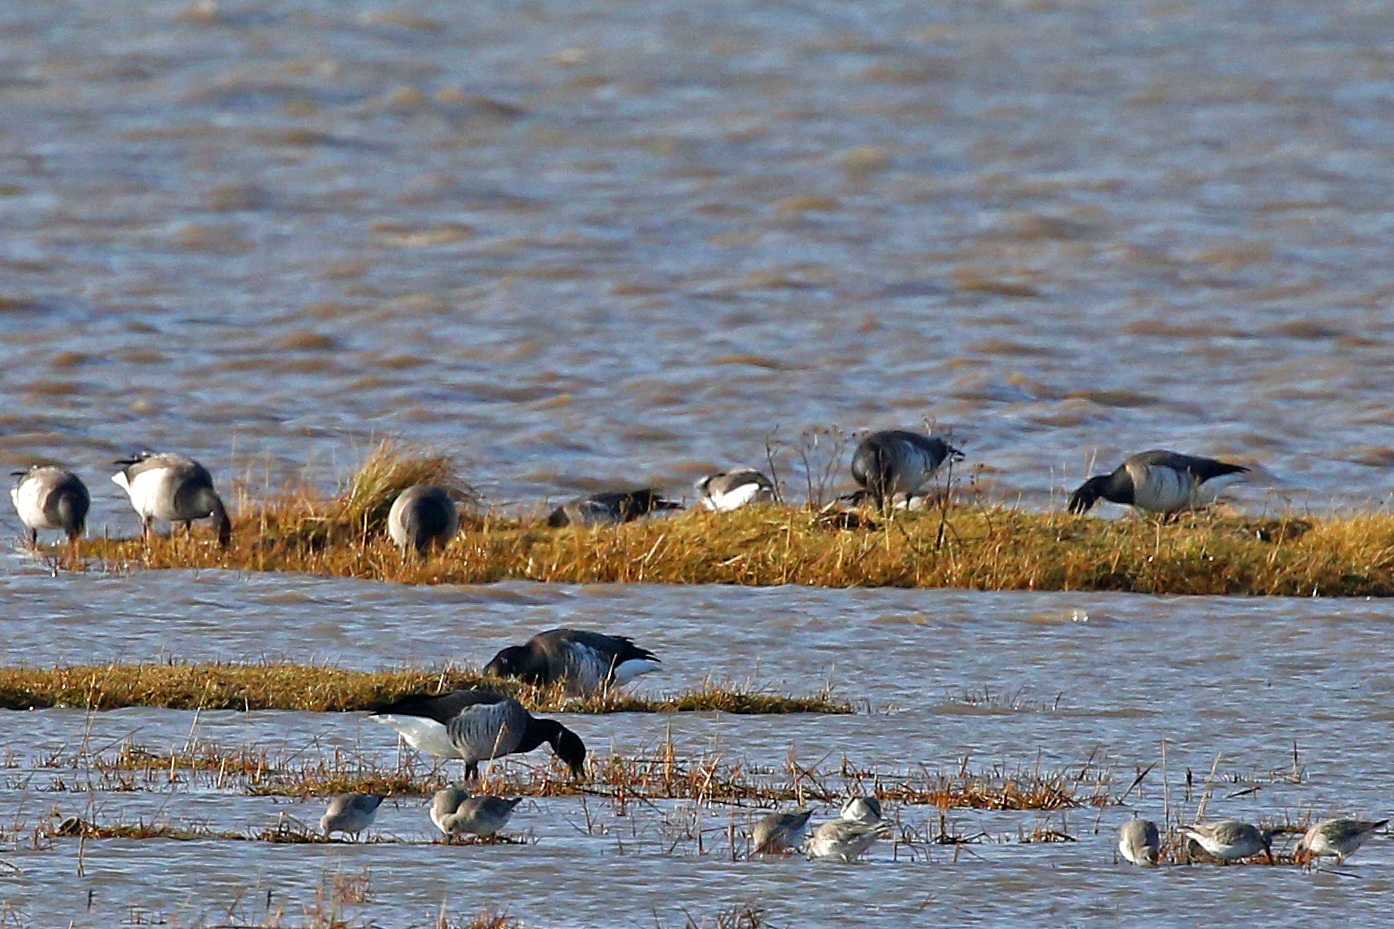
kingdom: Animalia
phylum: Chordata
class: Aves
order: Anseriformes
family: Anatidae
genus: Branta
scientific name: Branta bernicla
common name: Brant goose
